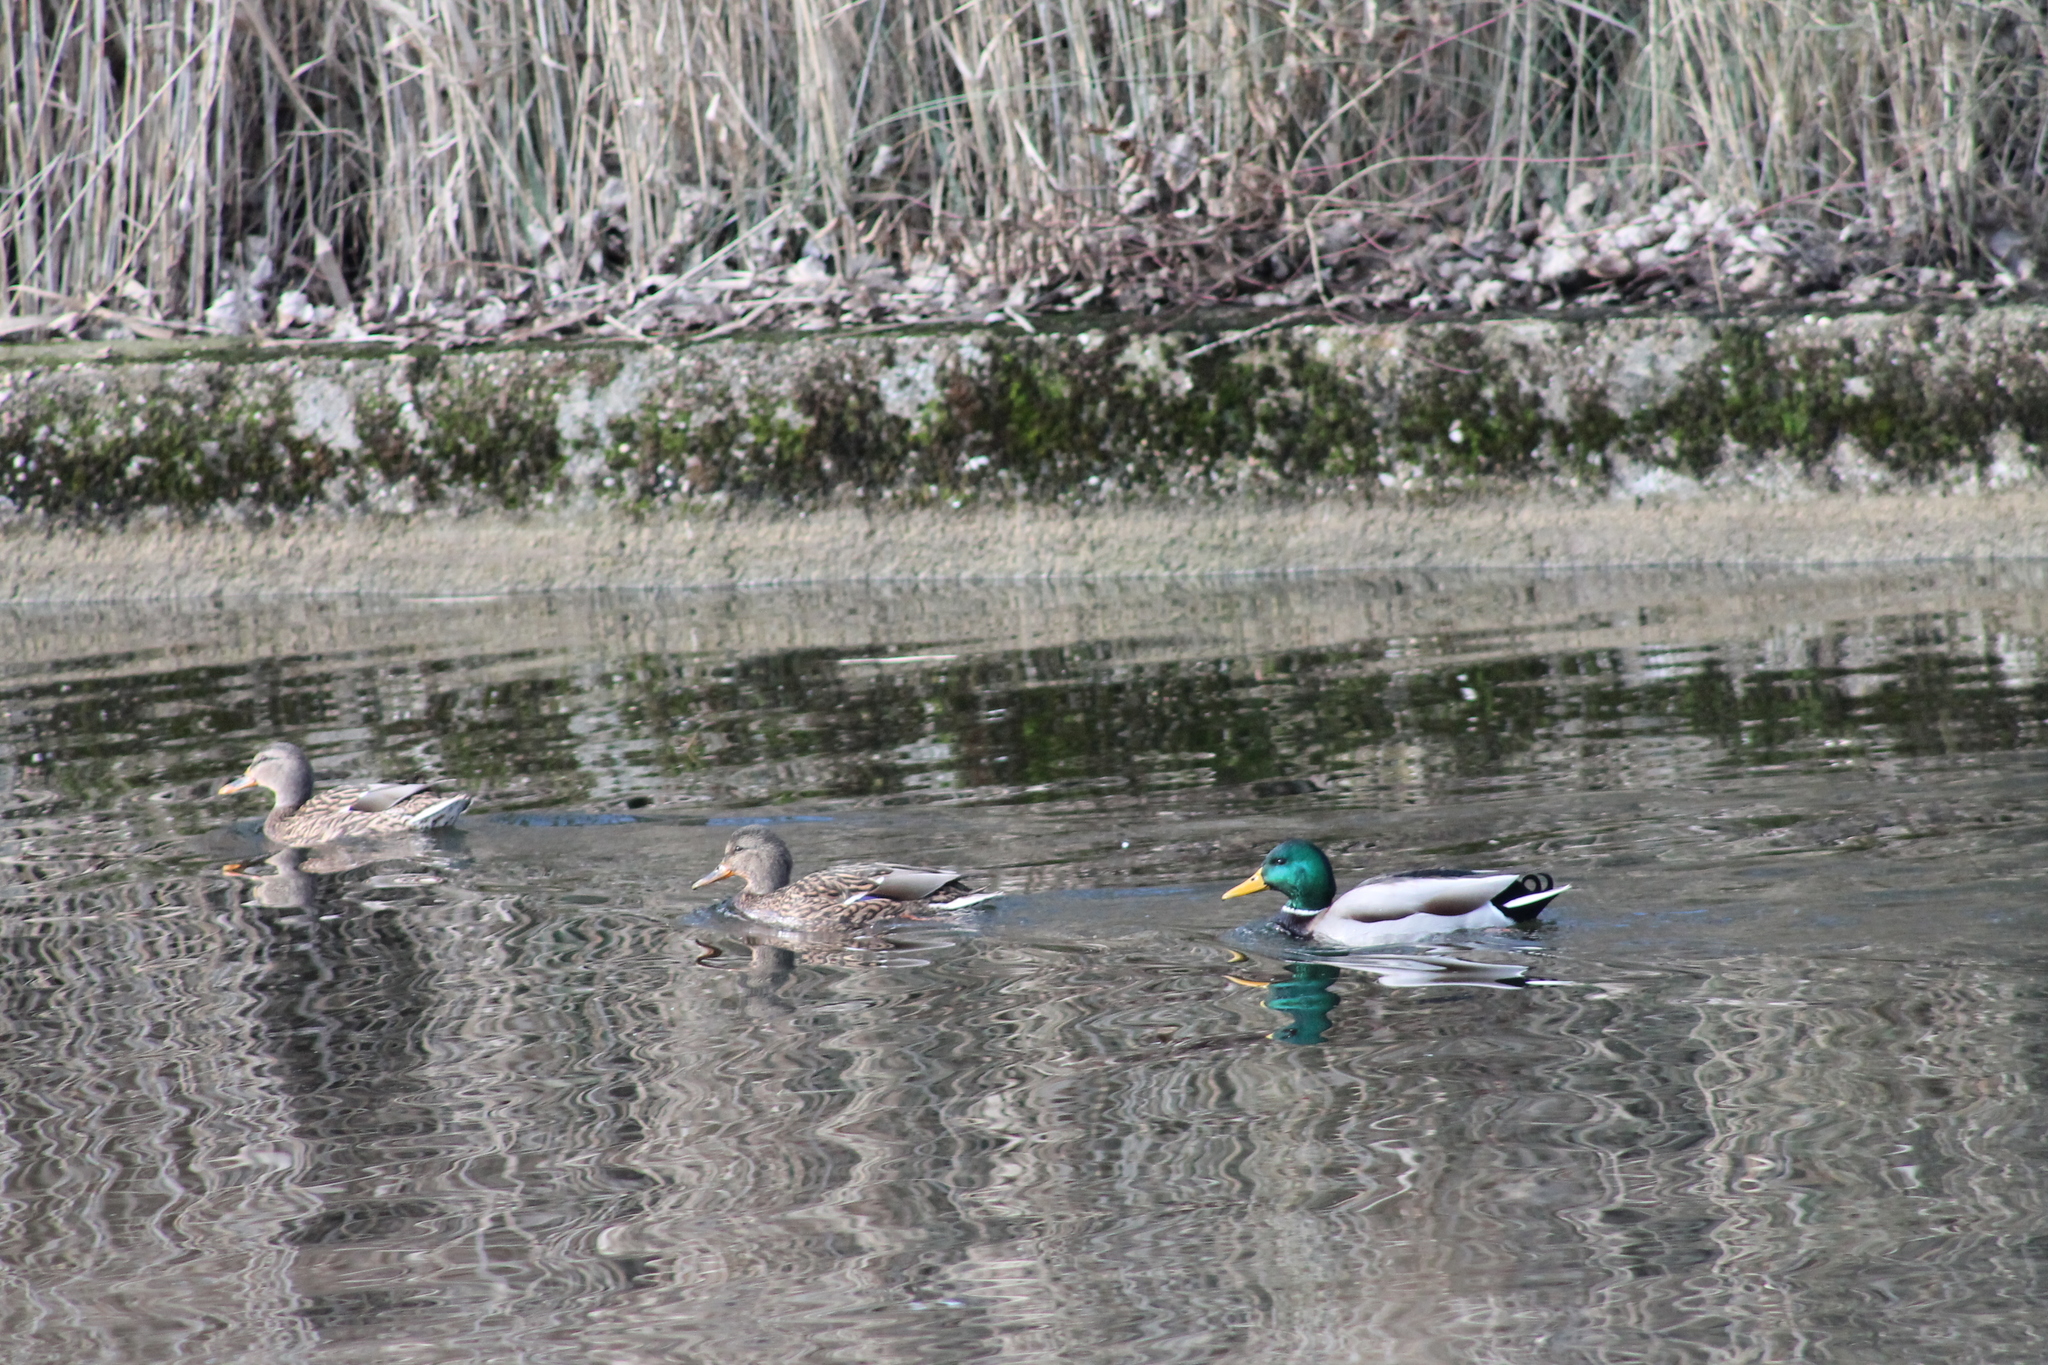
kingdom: Animalia
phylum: Chordata
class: Aves
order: Anseriformes
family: Anatidae
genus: Anas
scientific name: Anas platyrhynchos
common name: Mallard
